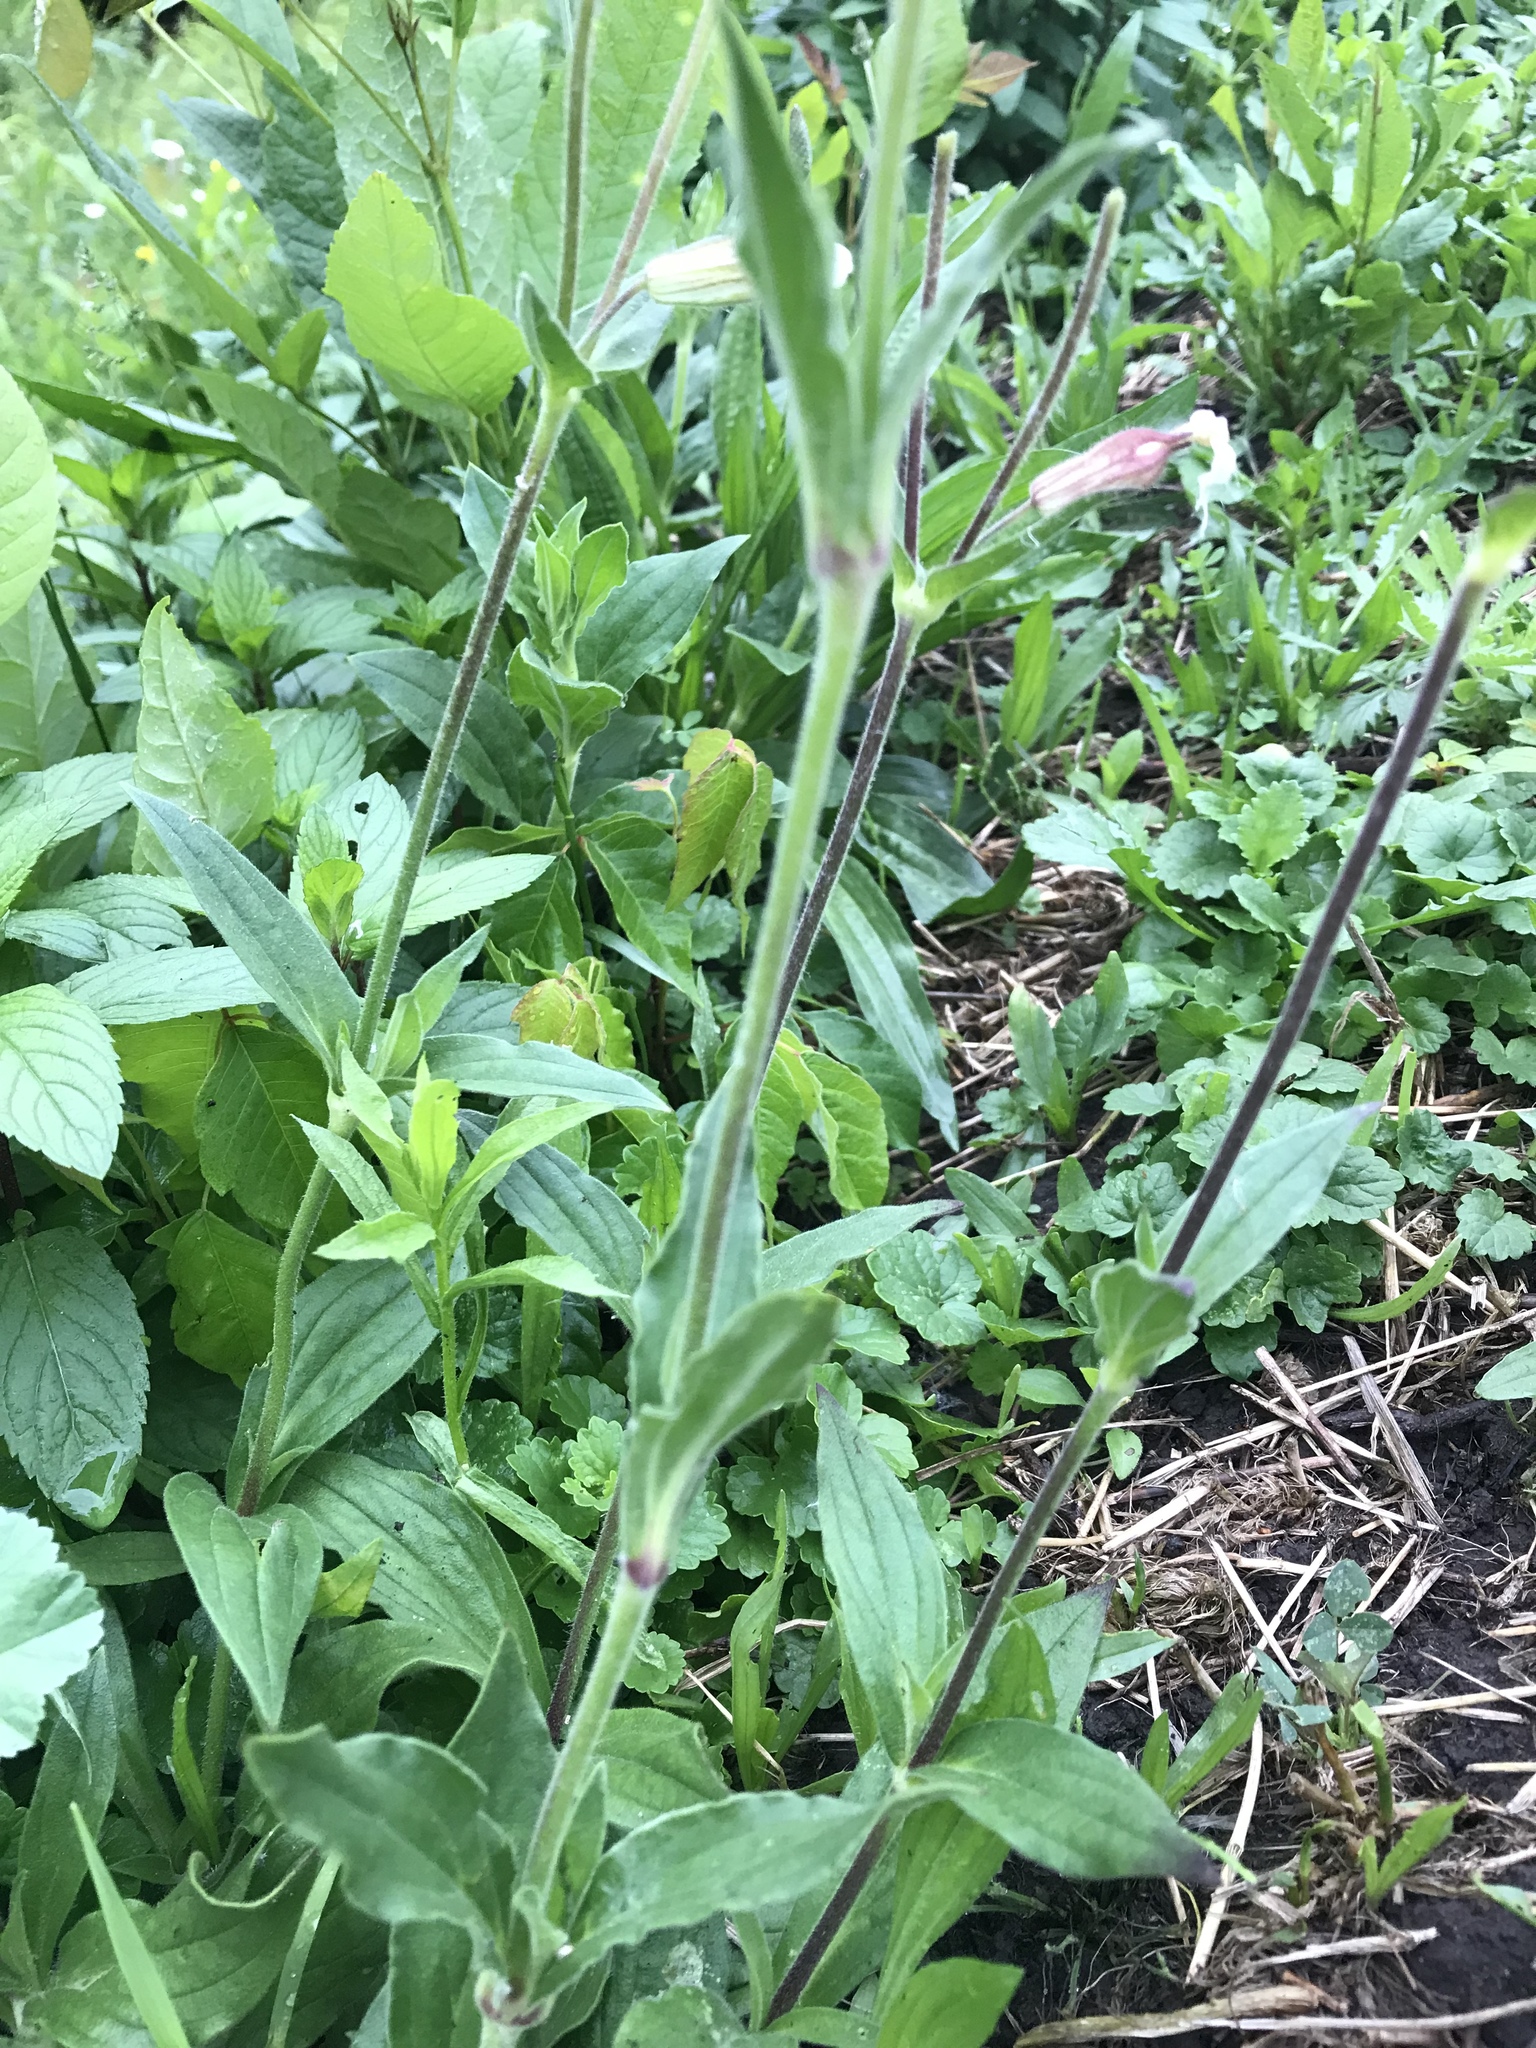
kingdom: Plantae
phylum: Tracheophyta
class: Magnoliopsida
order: Caryophyllales
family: Caryophyllaceae
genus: Silene
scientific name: Silene latifolia
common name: White campion
